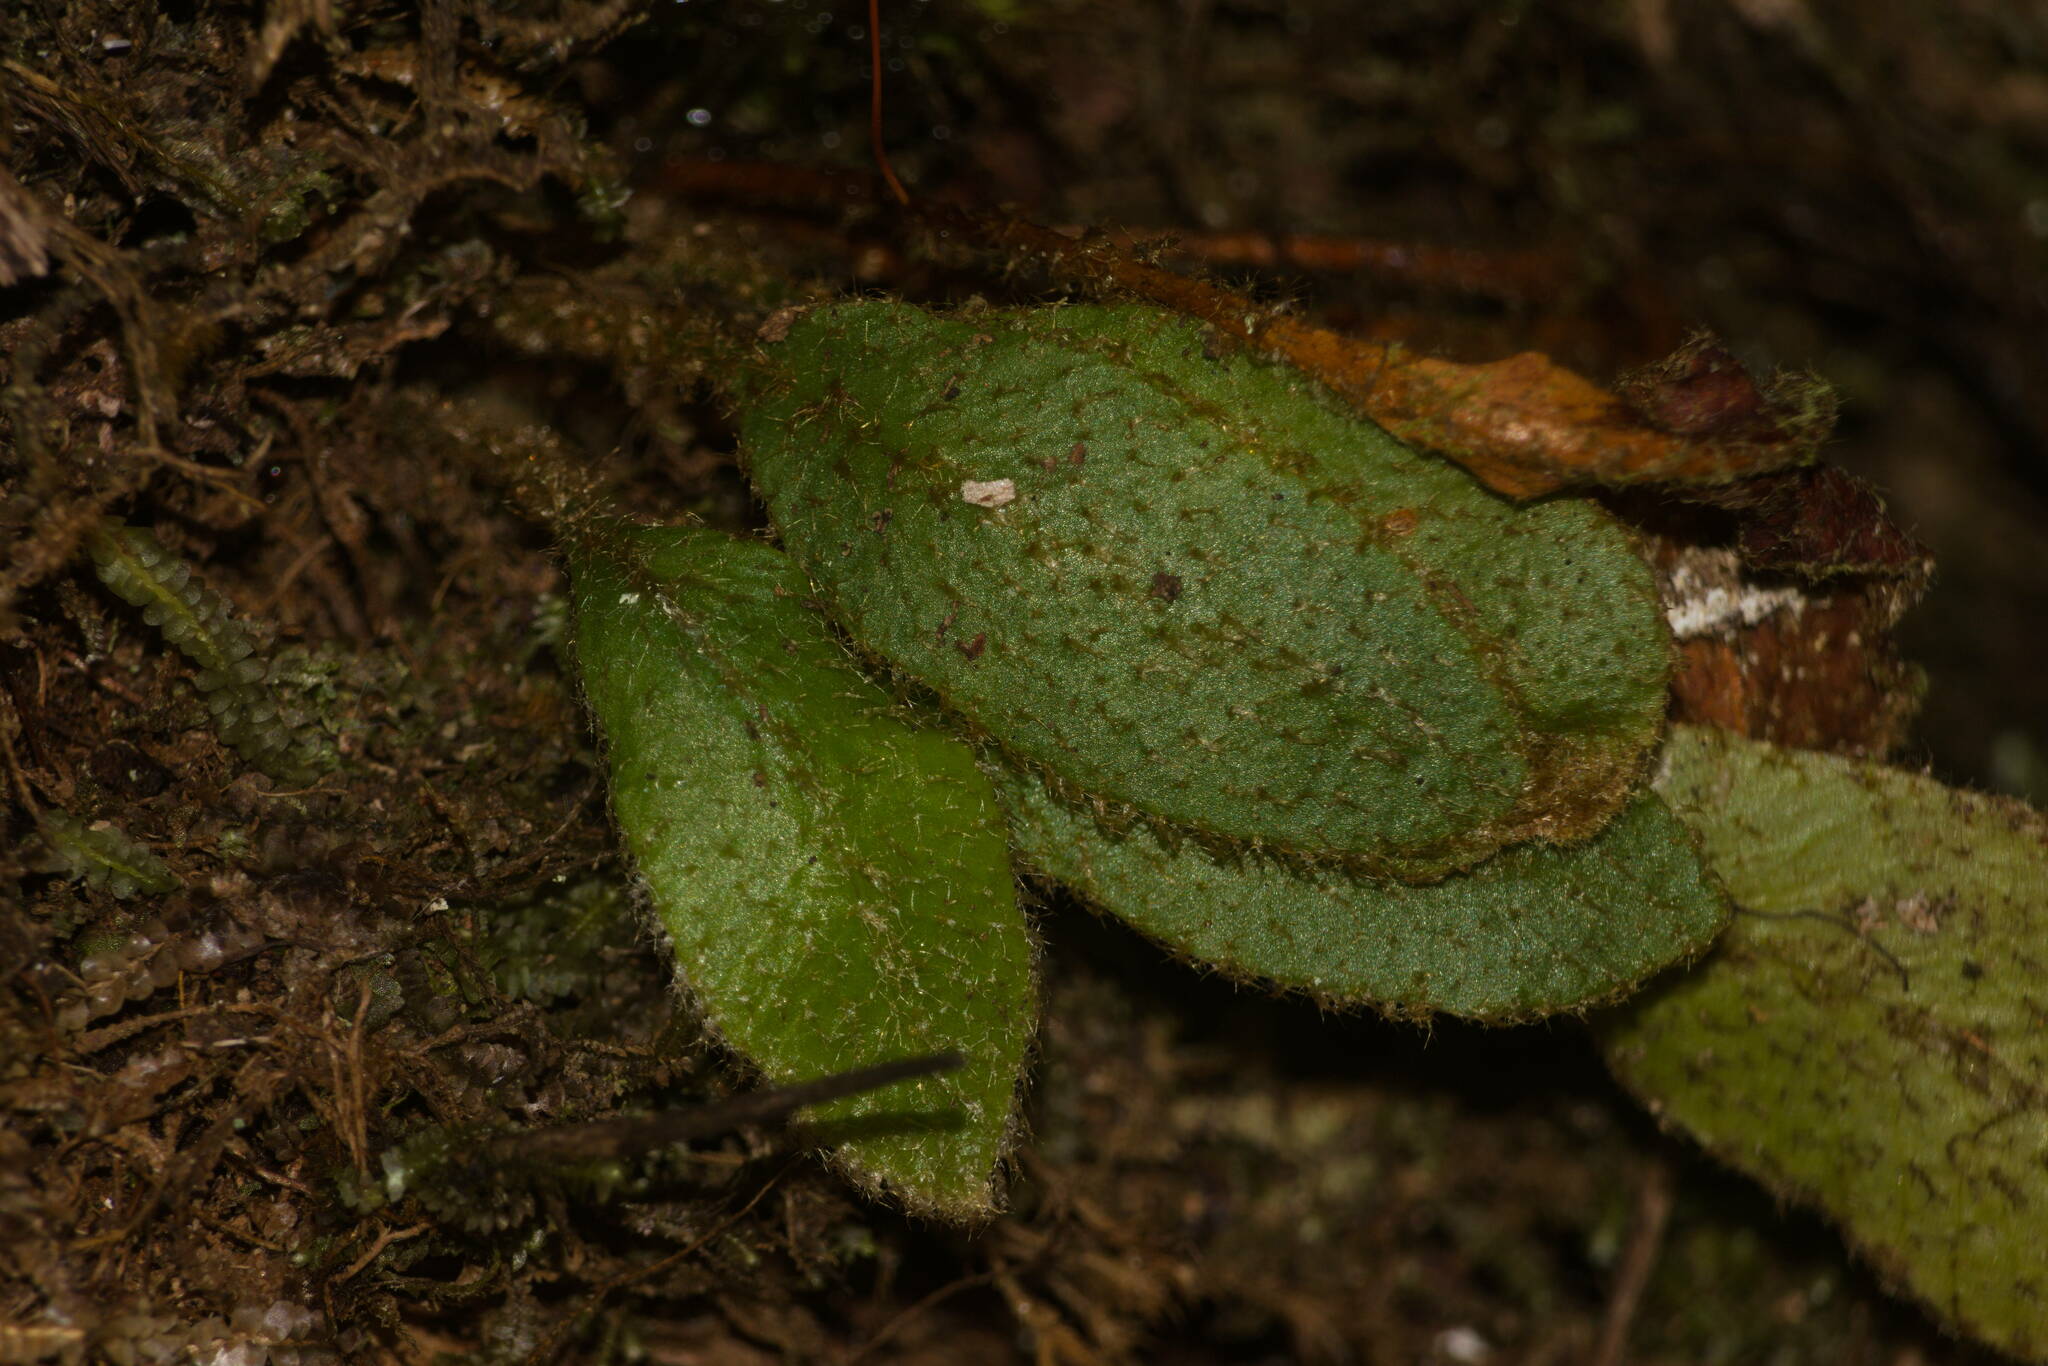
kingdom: Plantae
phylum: Tracheophyta
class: Polypodiopsida
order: Polypodiales
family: Dryopteridaceae
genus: Elaphoglossum
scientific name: Elaphoglossum paleaceum
